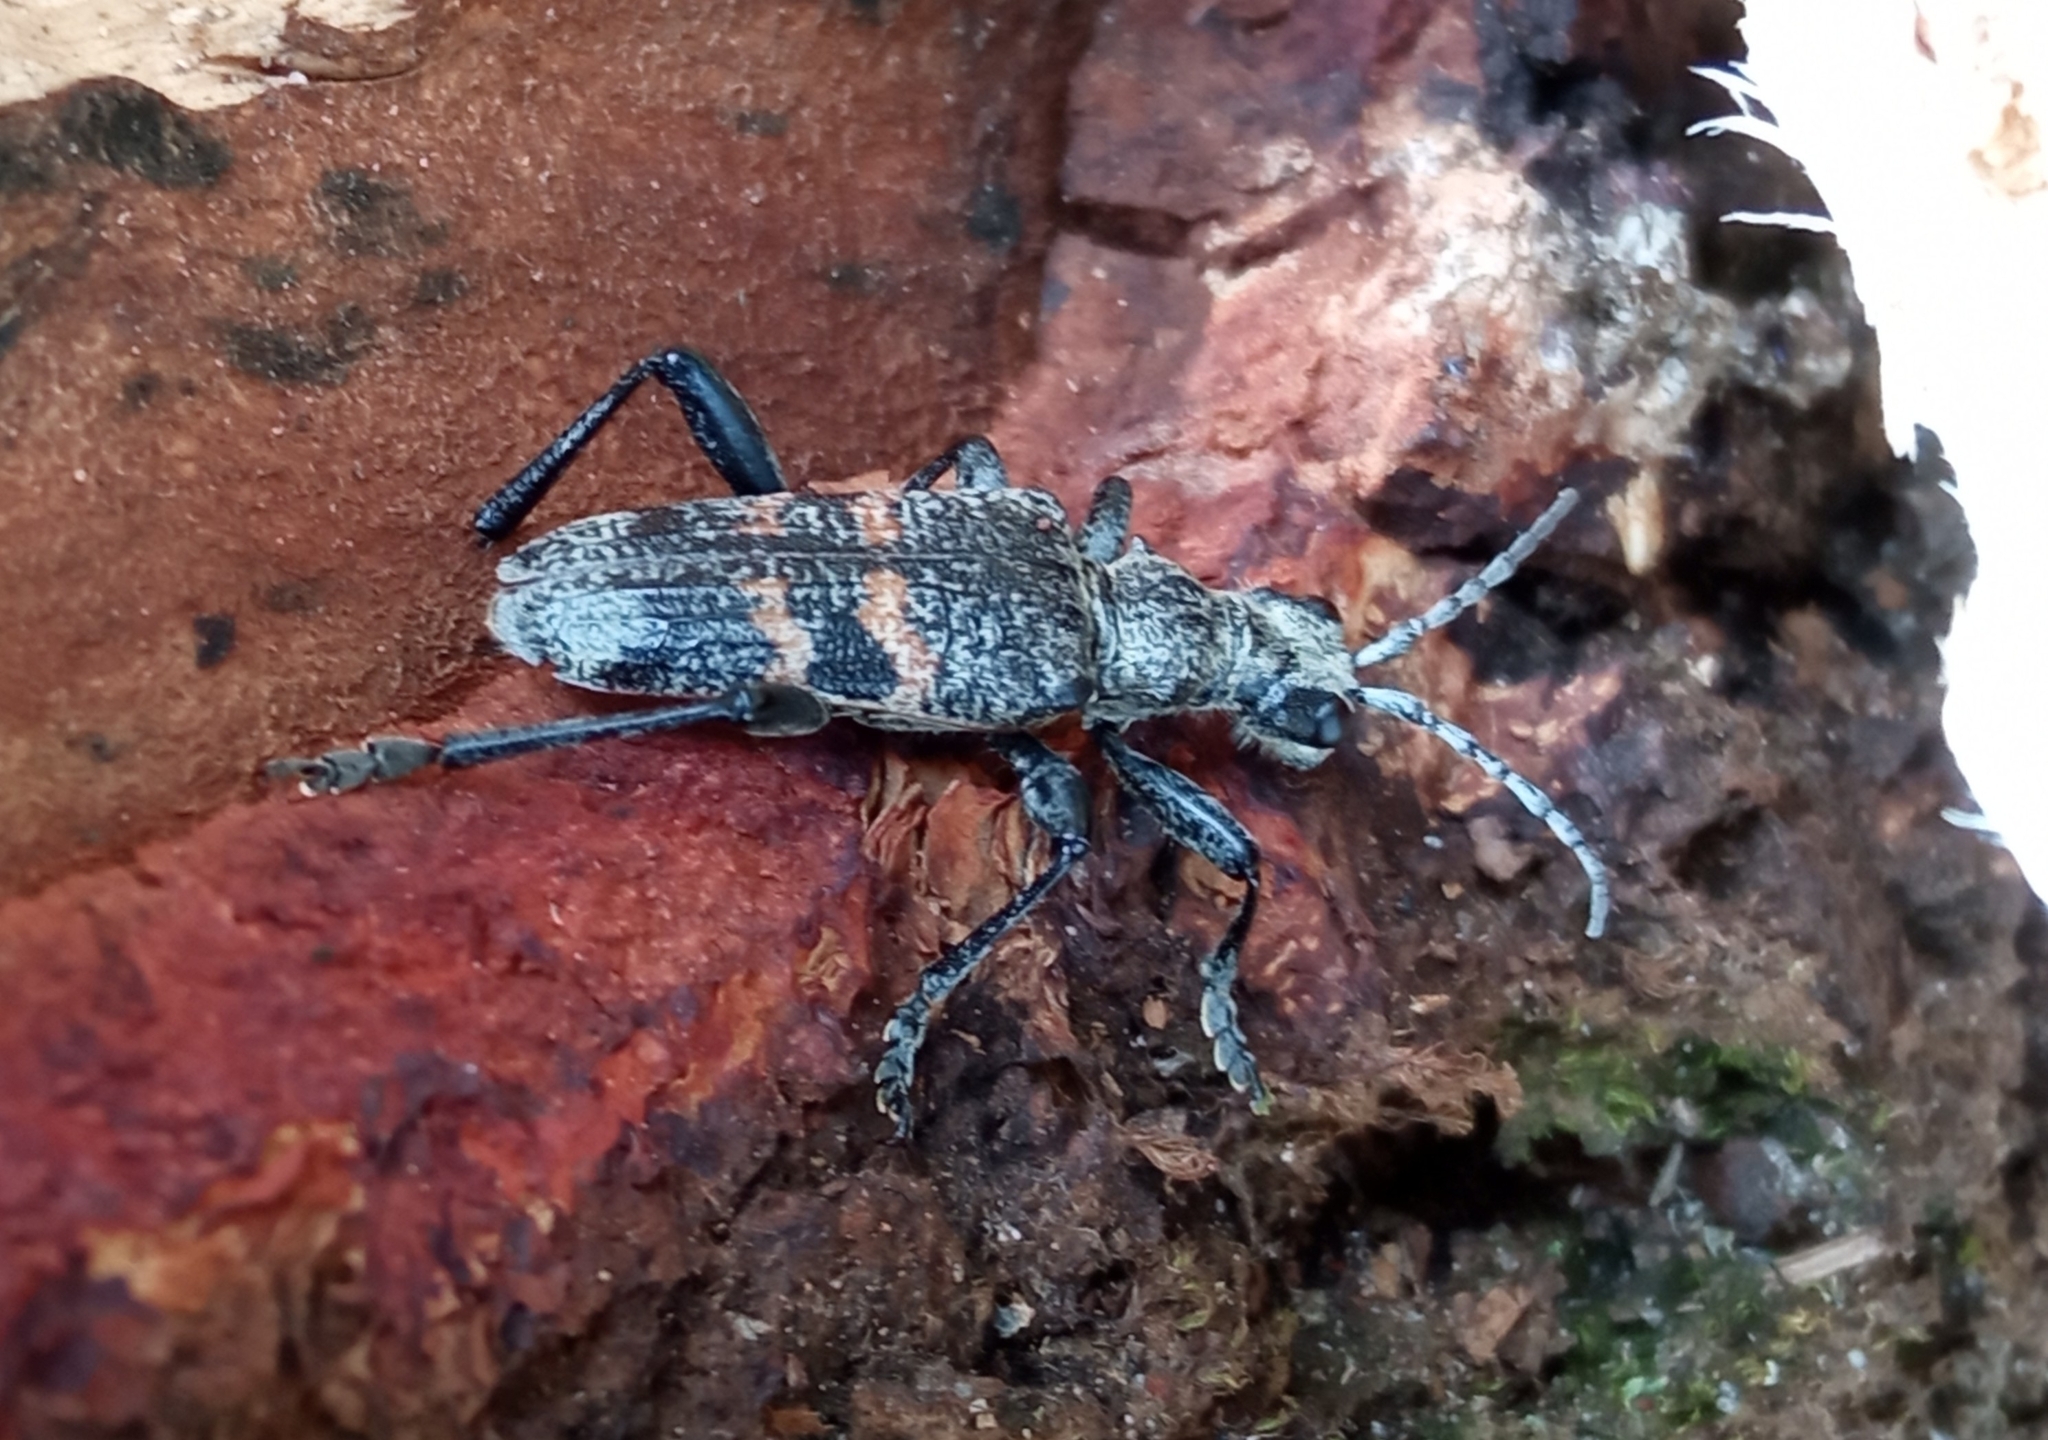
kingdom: Animalia
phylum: Arthropoda
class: Insecta
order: Coleoptera
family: Cerambycidae
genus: Rhagium
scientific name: Rhagium mordax
